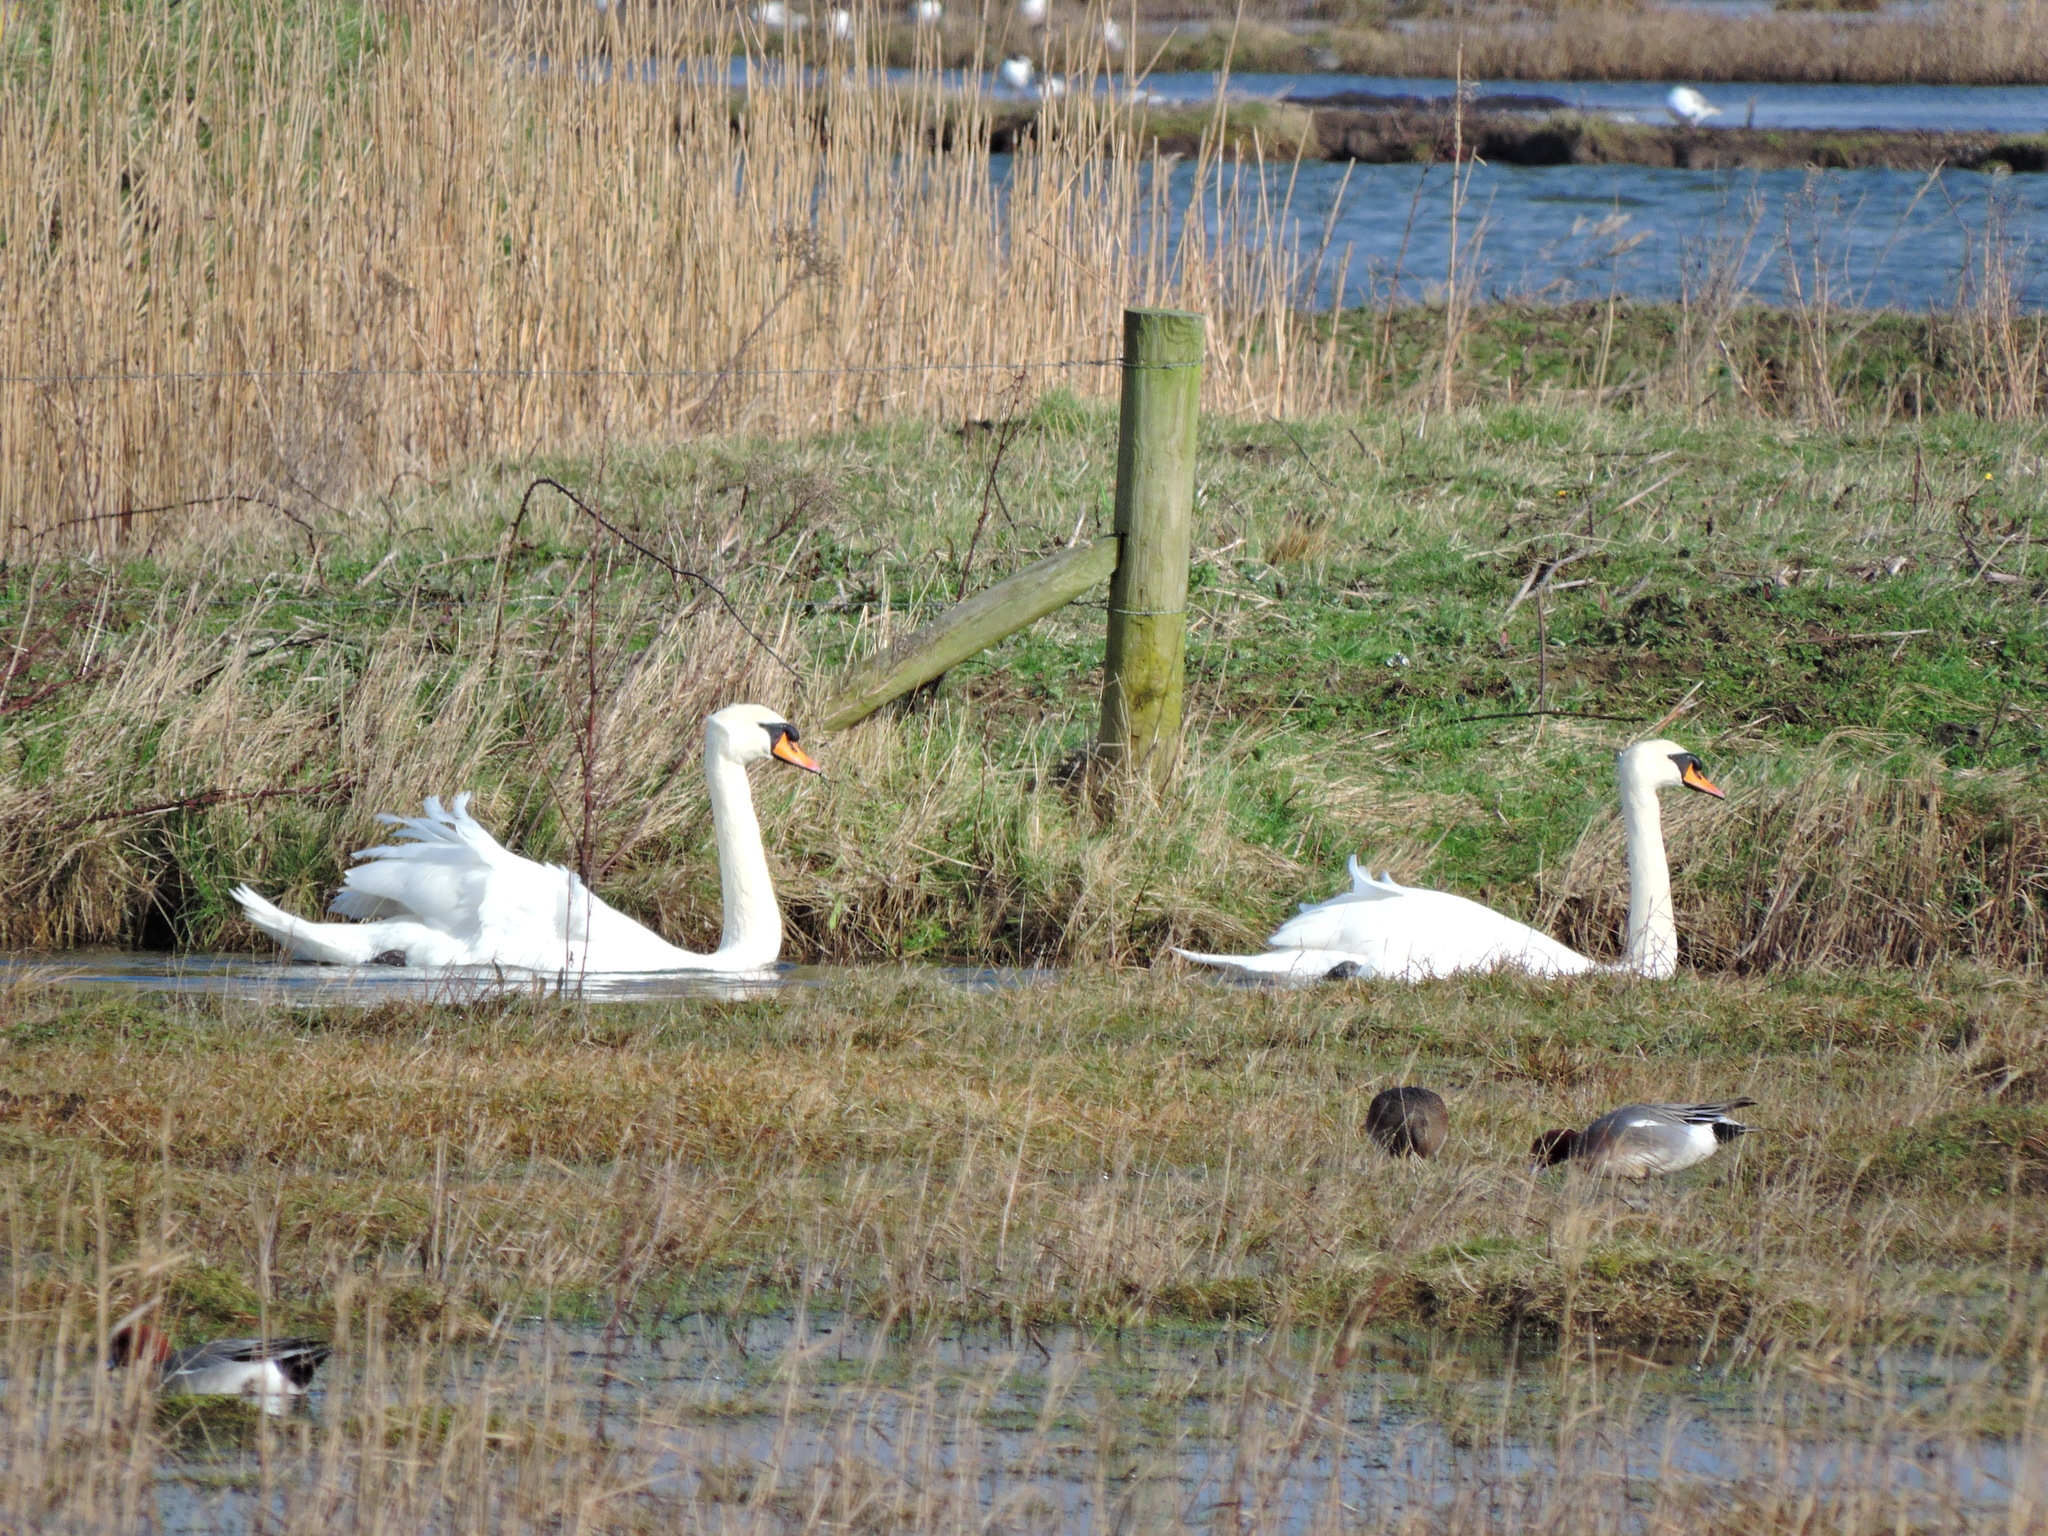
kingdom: Animalia
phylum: Chordata
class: Aves
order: Anseriformes
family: Anatidae
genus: Cygnus
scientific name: Cygnus olor
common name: Mute swan
